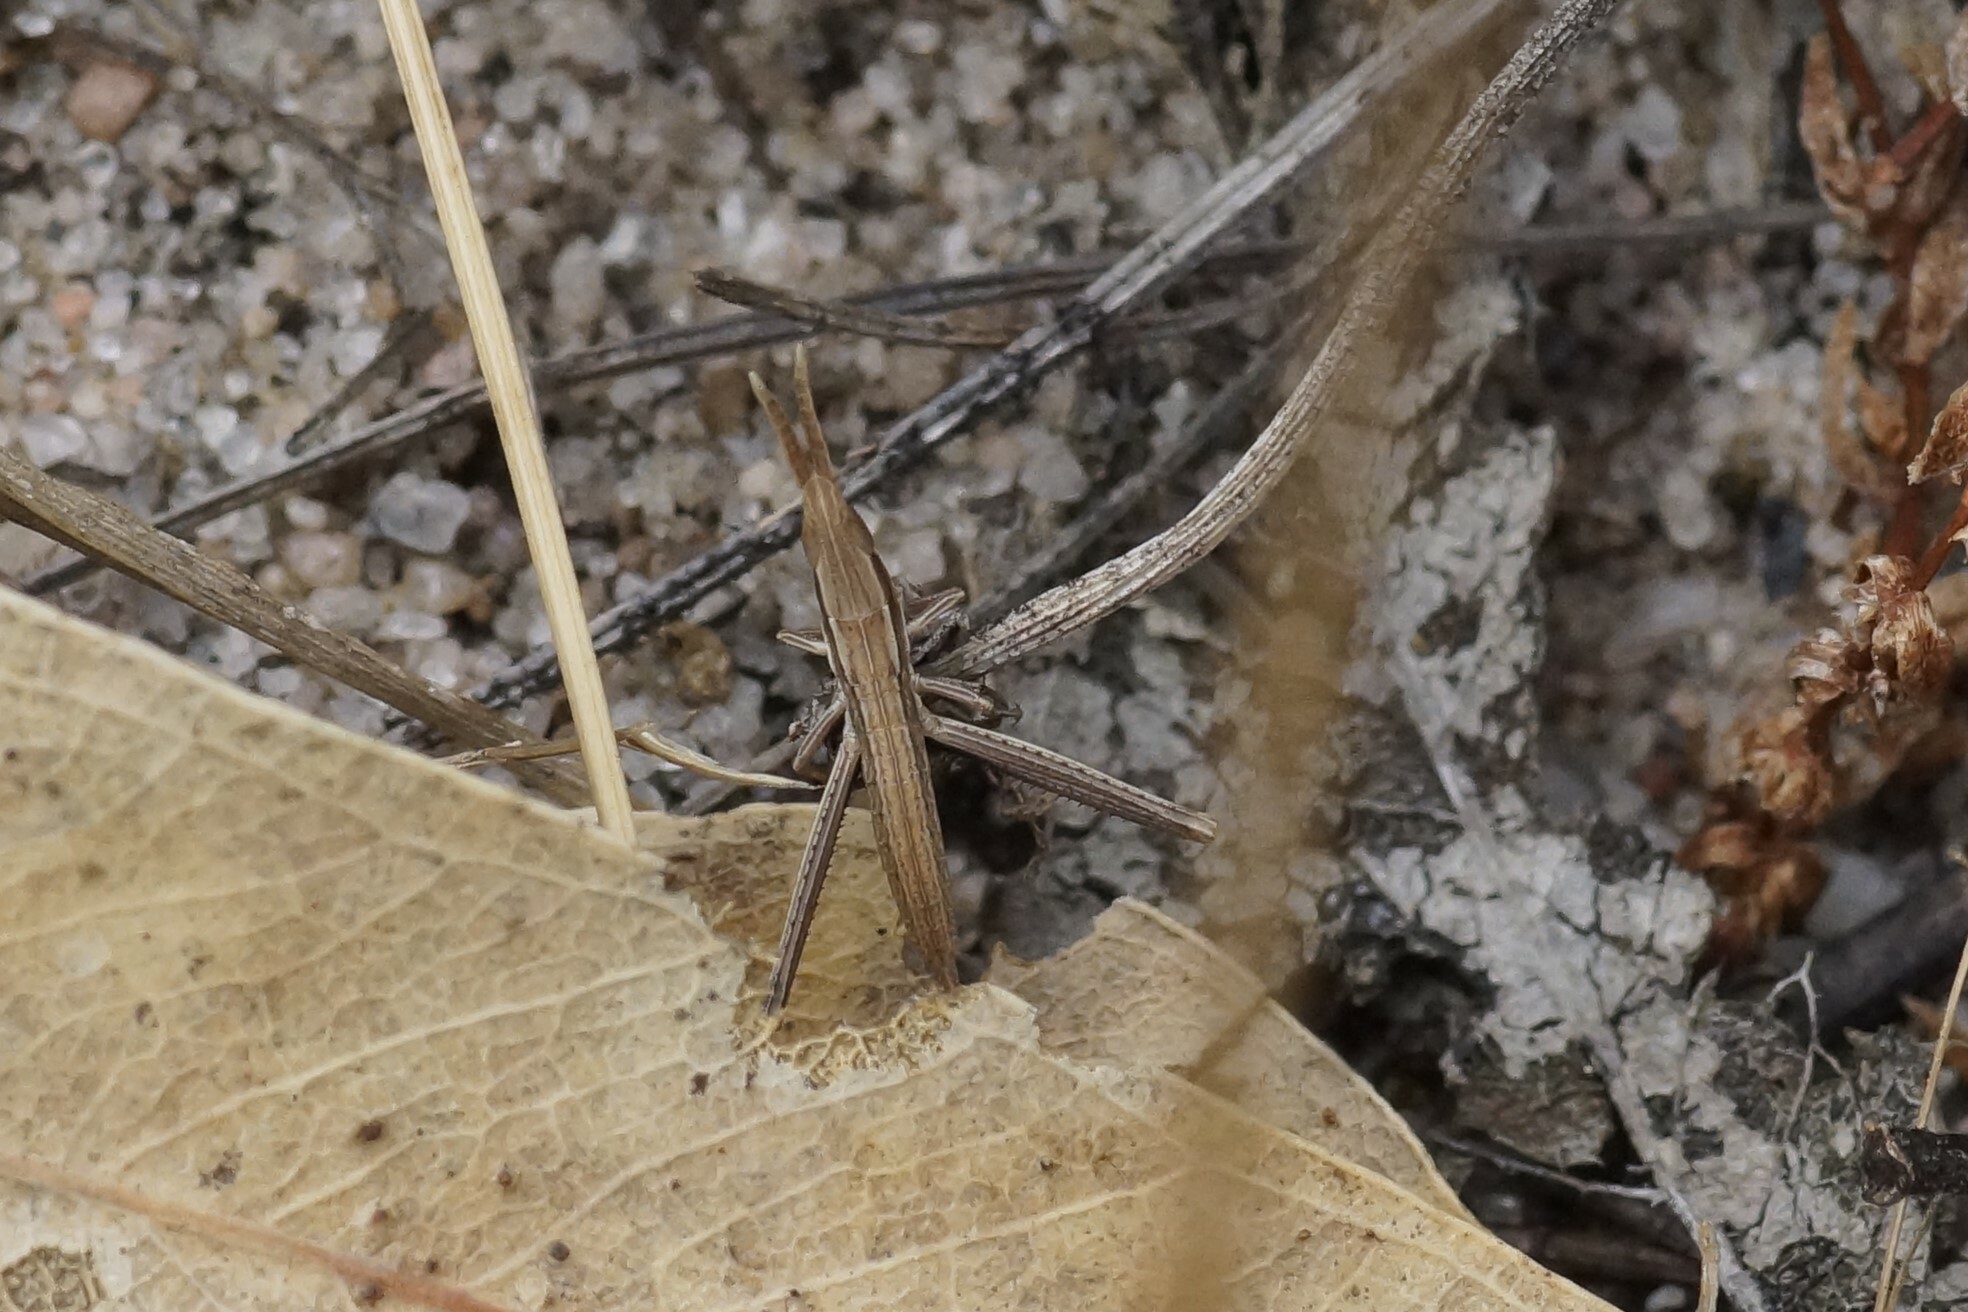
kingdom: Animalia
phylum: Arthropoda
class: Insecta
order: Orthoptera
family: Acrididae
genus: Acrida
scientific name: Acrida conica
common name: Giant green slantface
